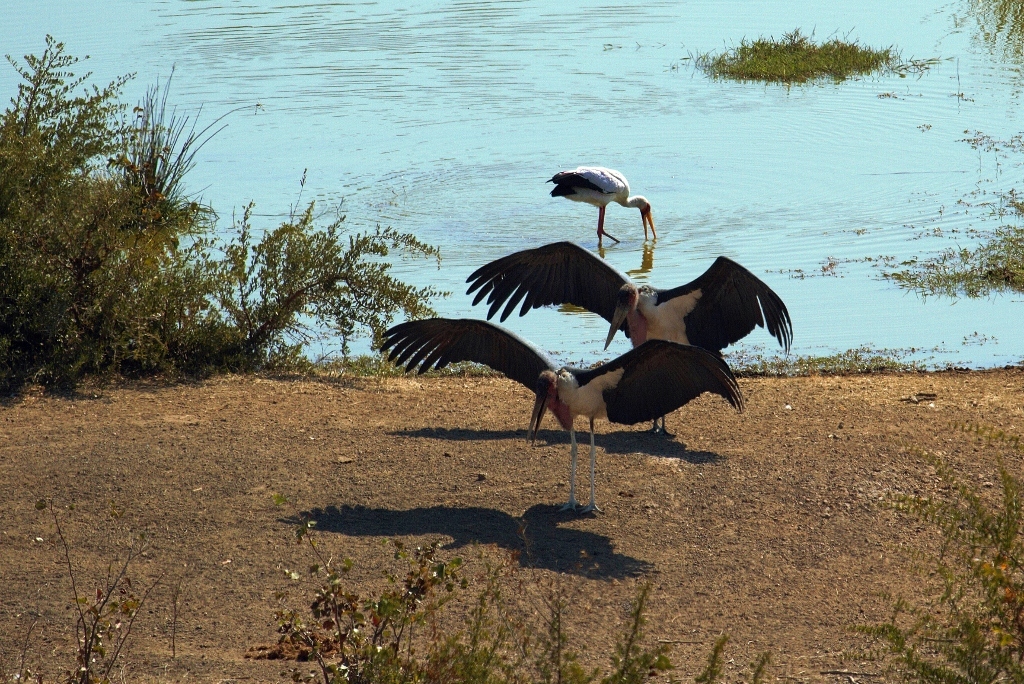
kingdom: Animalia
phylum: Chordata
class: Aves
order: Ciconiiformes
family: Ciconiidae
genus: Mycteria
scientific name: Mycteria ibis
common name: Yellow-billed stork
